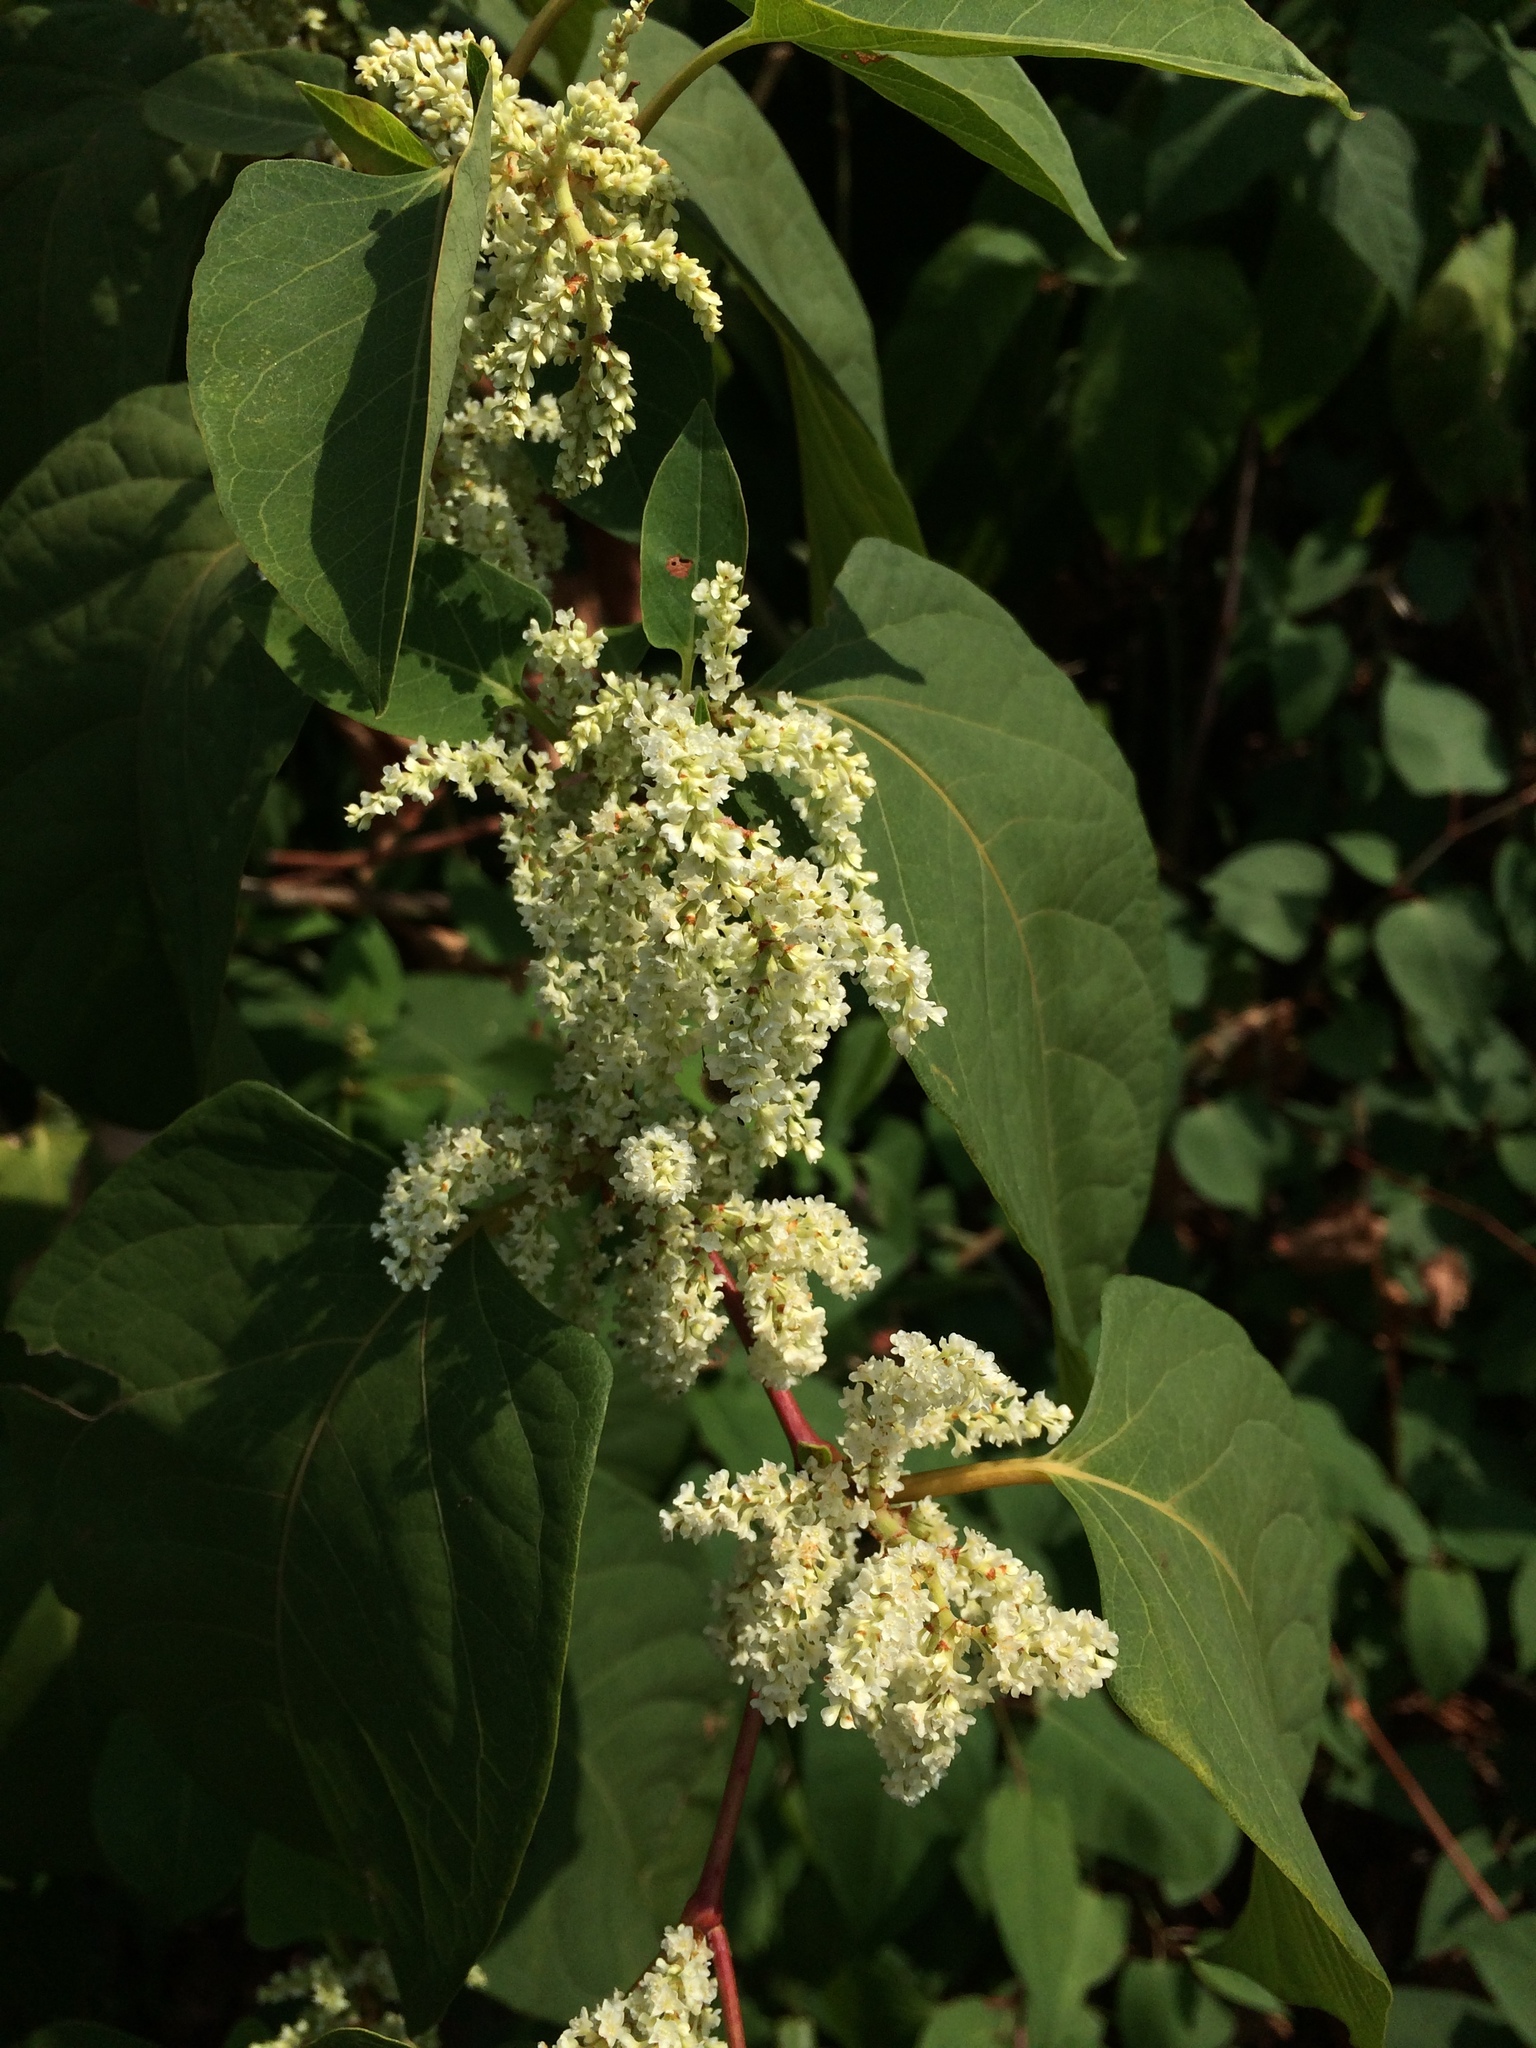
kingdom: Plantae
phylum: Tracheophyta
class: Magnoliopsida
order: Caryophyllales
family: Polygonaceae
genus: Reynoutria
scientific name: Reynoutria japonica
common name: Japanese knotweed
